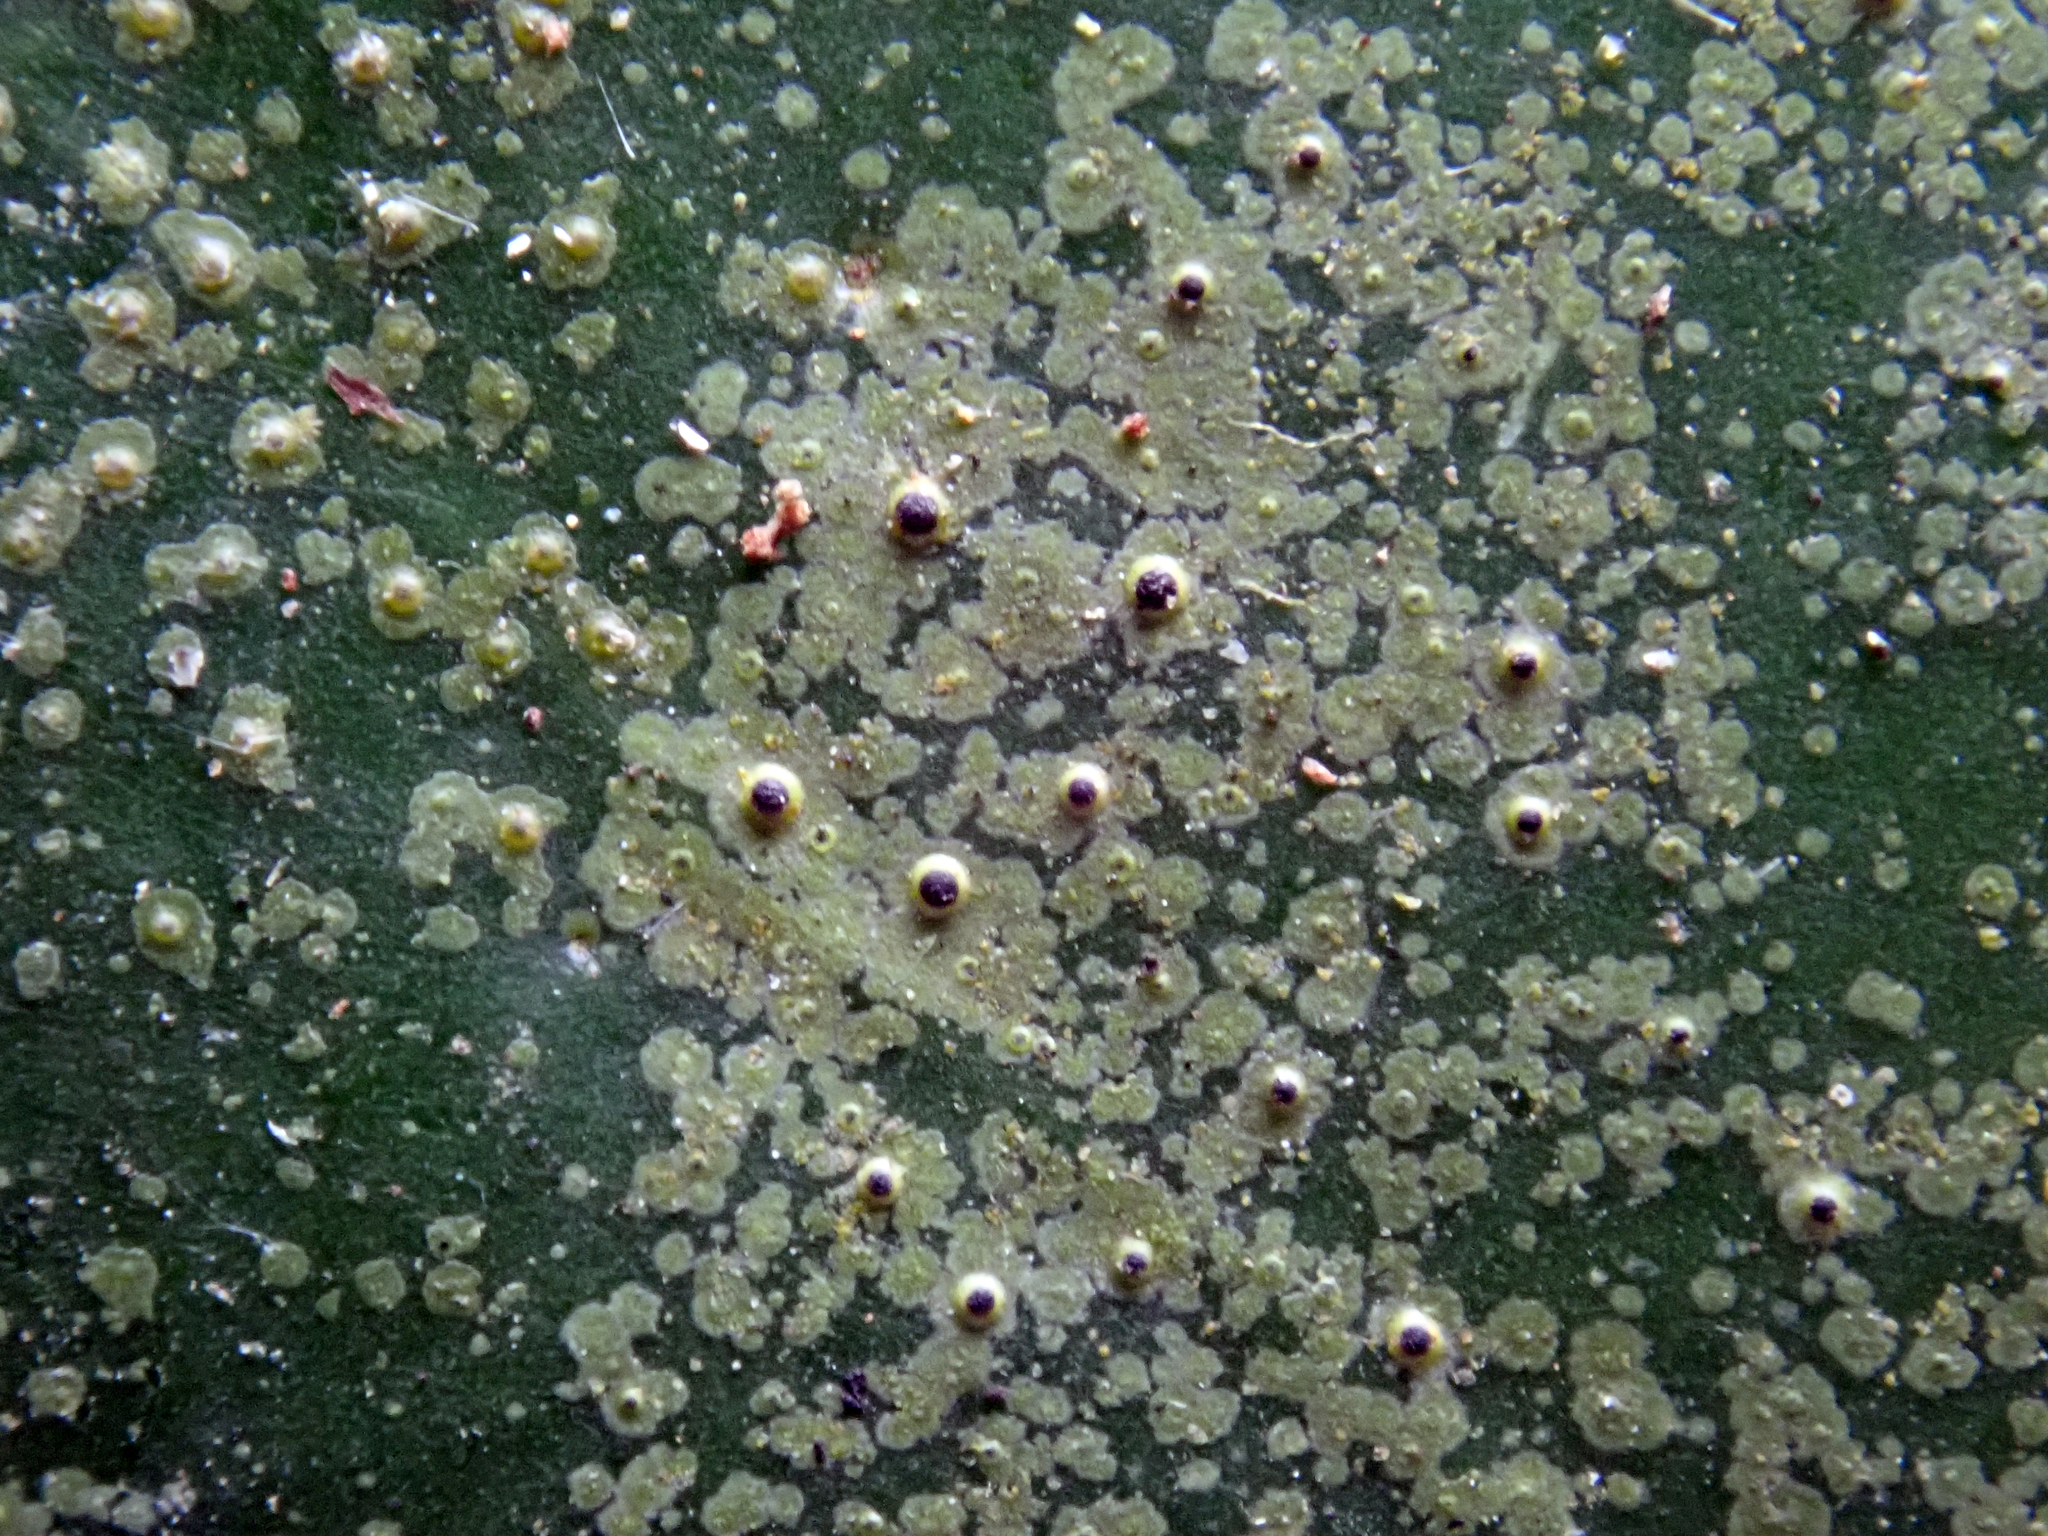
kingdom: Fungi
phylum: Ascomycota
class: Lecanoromycetes
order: Ostropales
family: Porinaceae
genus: Pseudosagedia
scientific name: Pseudosagedia atrocoerulea
